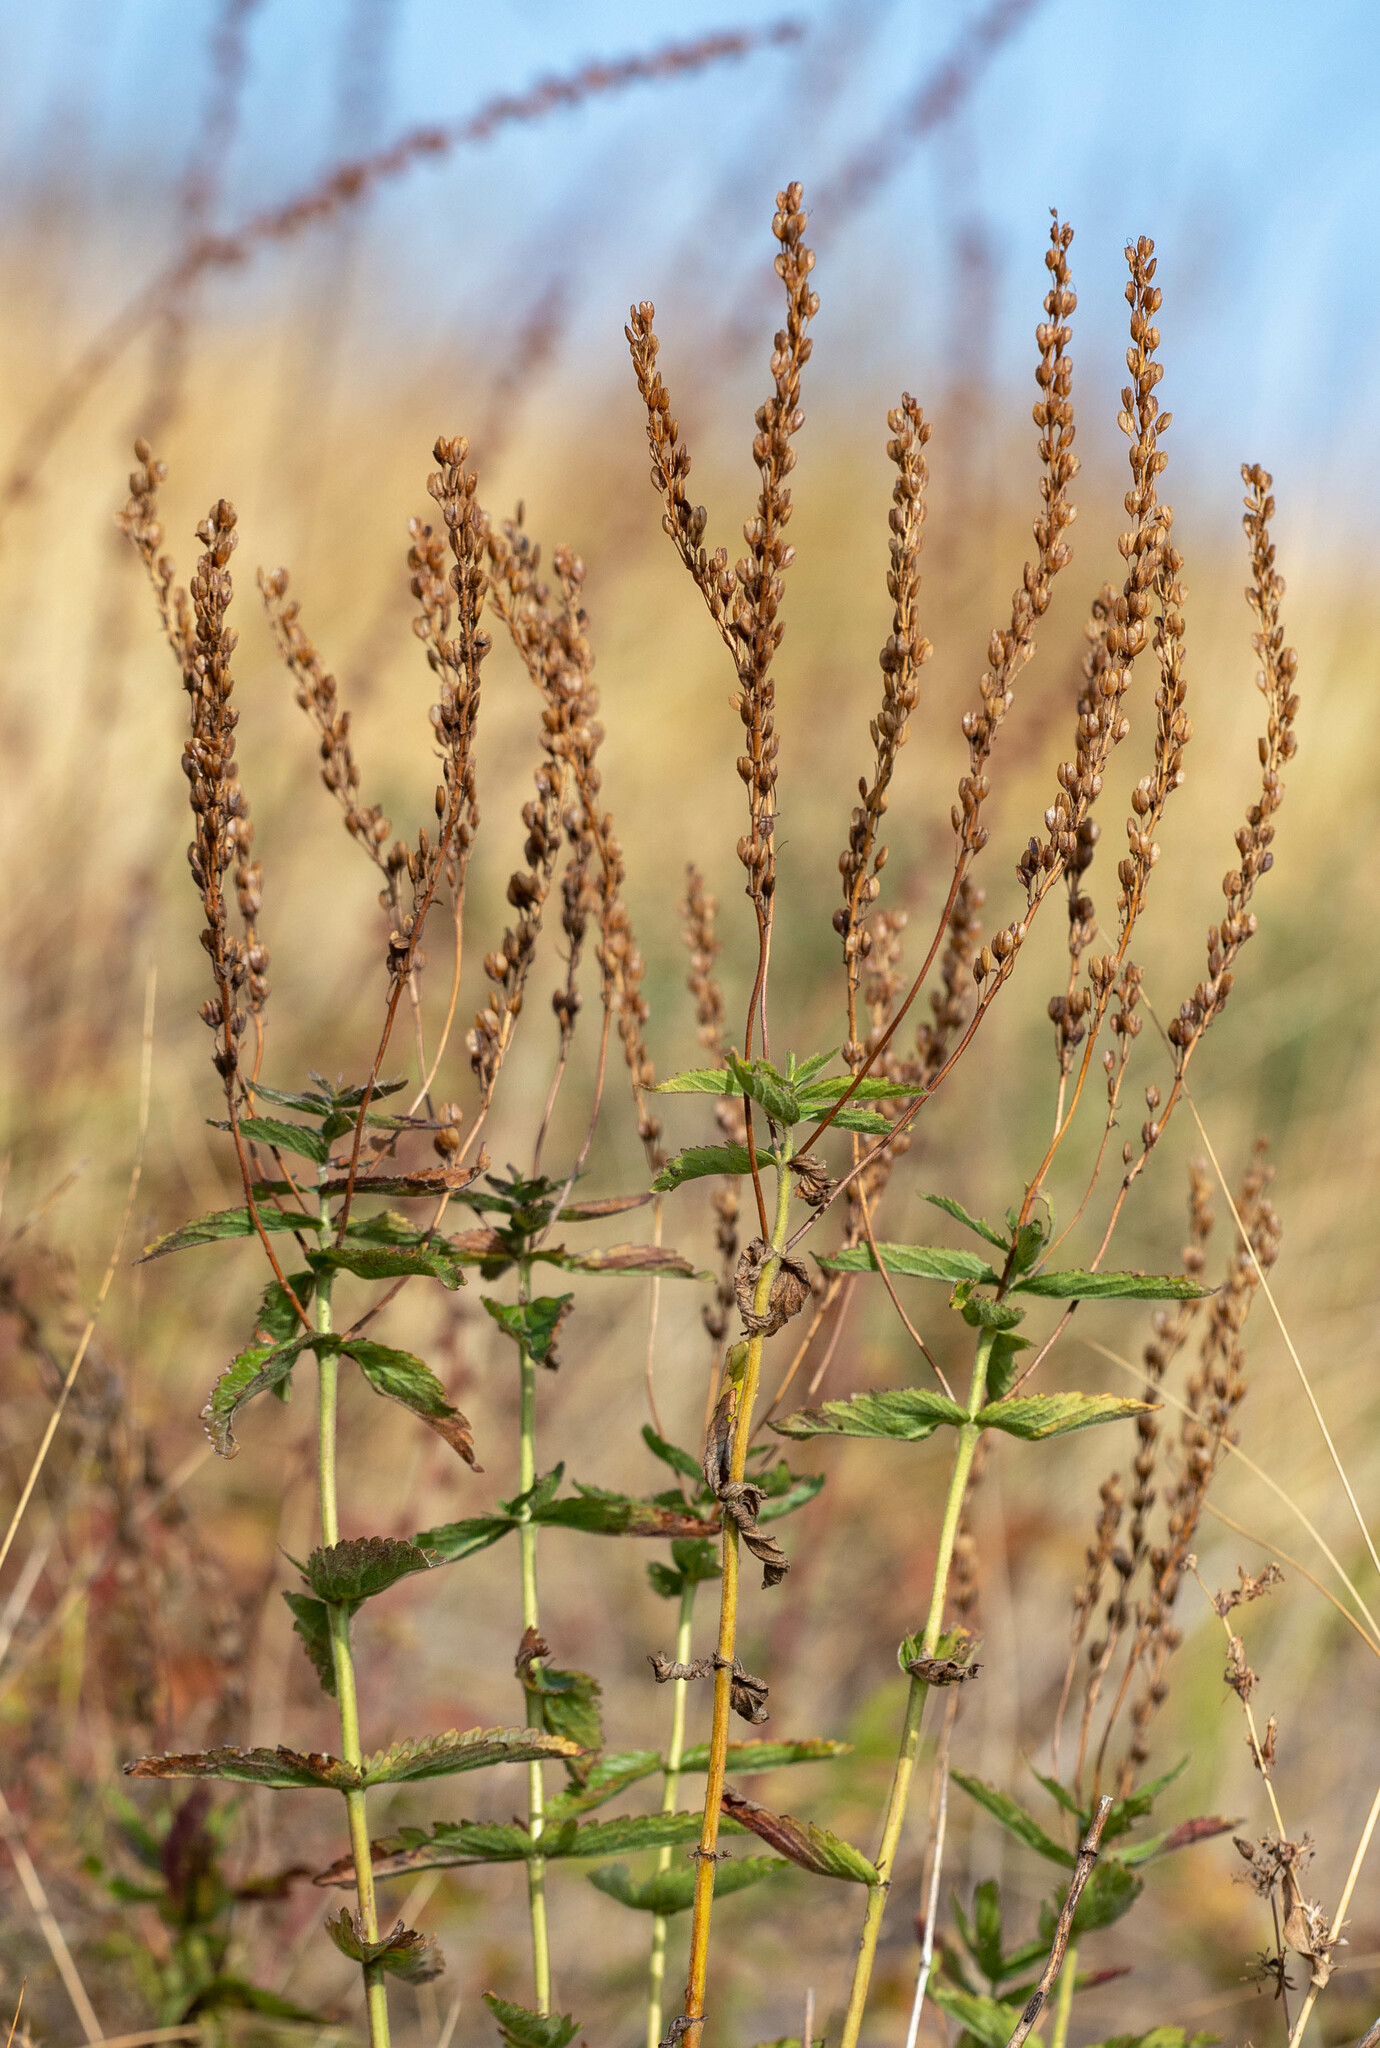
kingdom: Plantae
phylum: Tracheophyta
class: Magnoliopsida
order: Lamiales
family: Plantaginaceae
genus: Veronica
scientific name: Veronica teucrium
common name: Large speedwell
